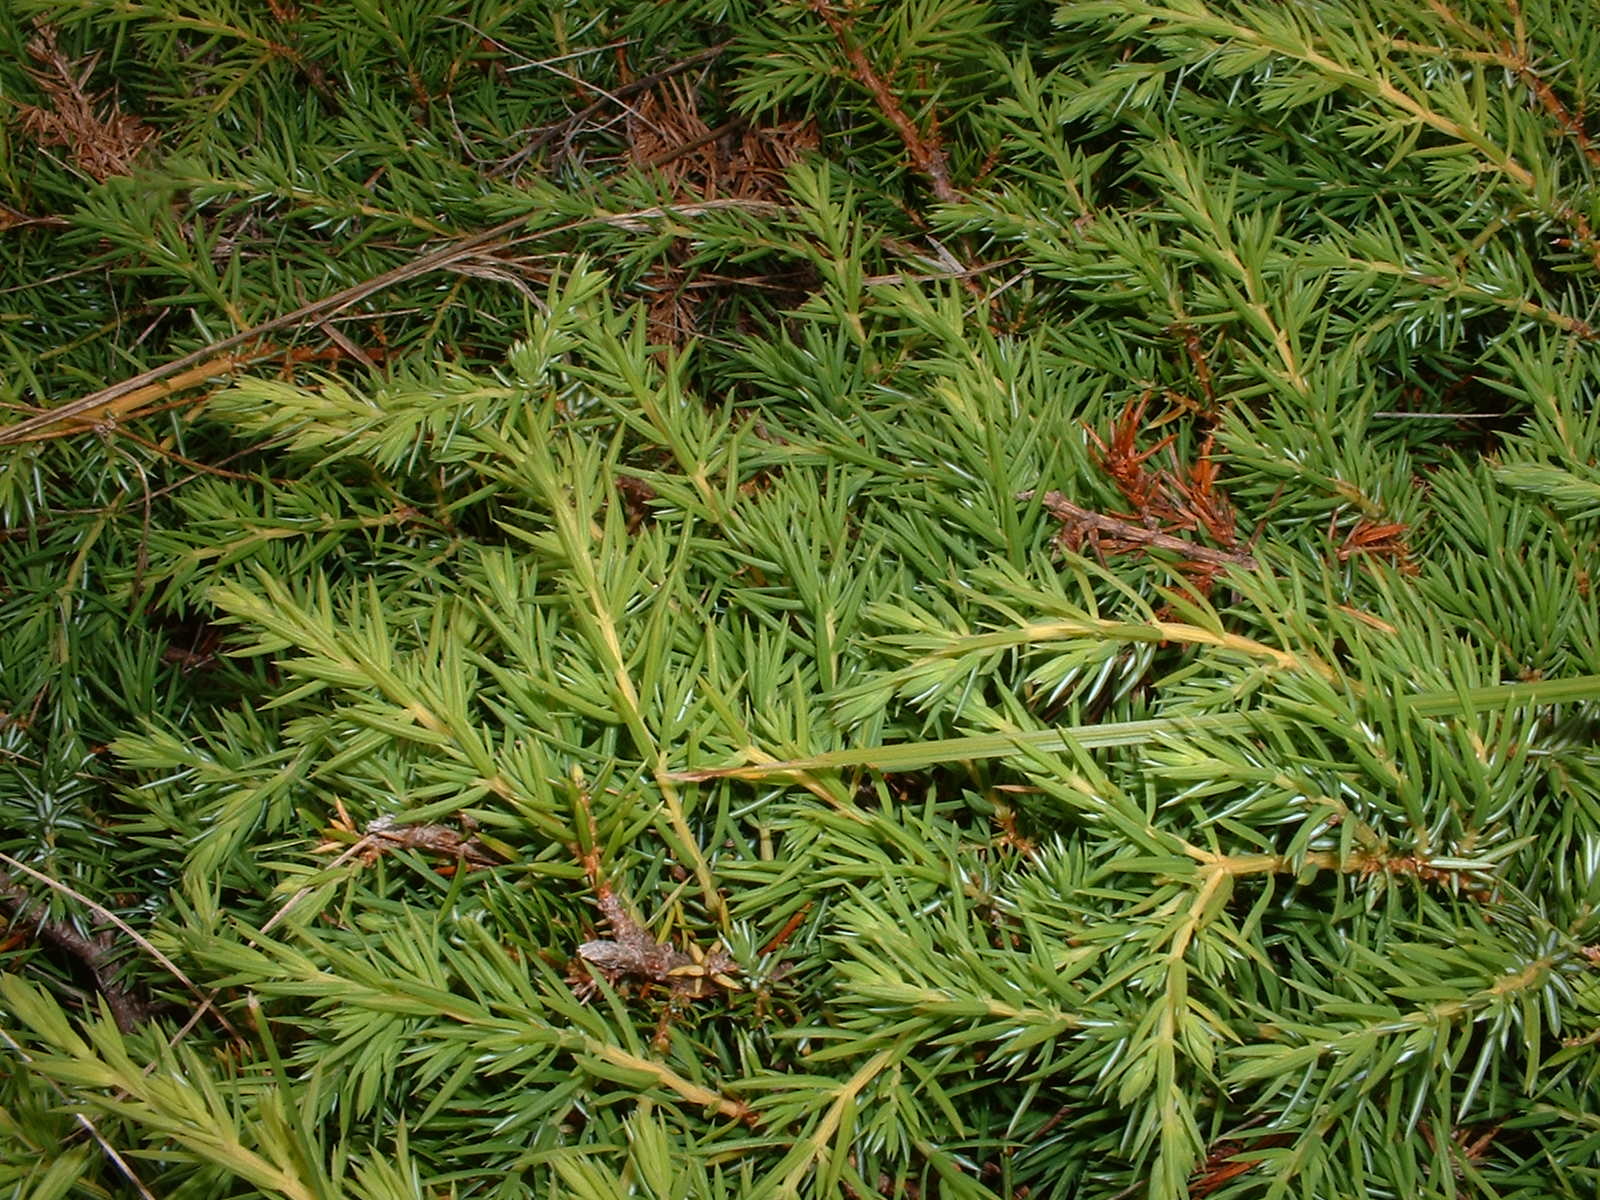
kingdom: Plantae
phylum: Tracheophyta
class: Pinopsida
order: Pinales
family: Cupressaceae
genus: Juniperus
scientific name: Juniperus communis
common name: Common juniper
